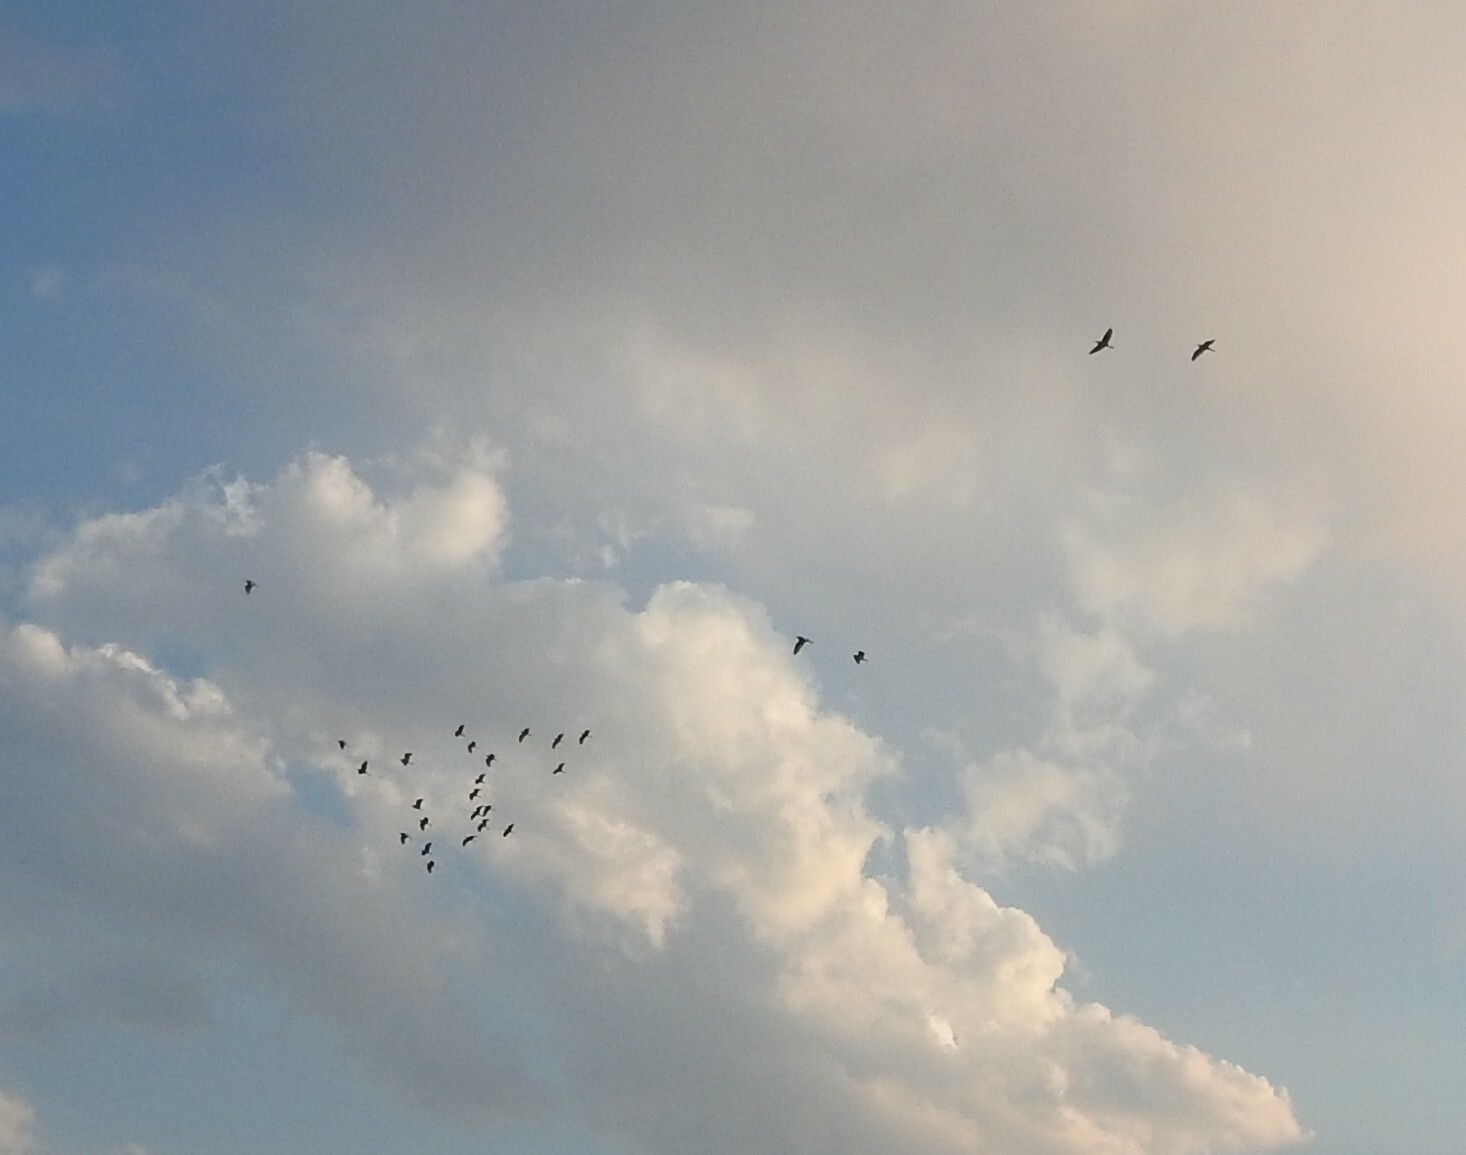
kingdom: Animalia
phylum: Chordata
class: Aves
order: Pelecaniformes
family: Ardeidae
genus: Bubulcus
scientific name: Bubulcus ibis
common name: Cattle egret
